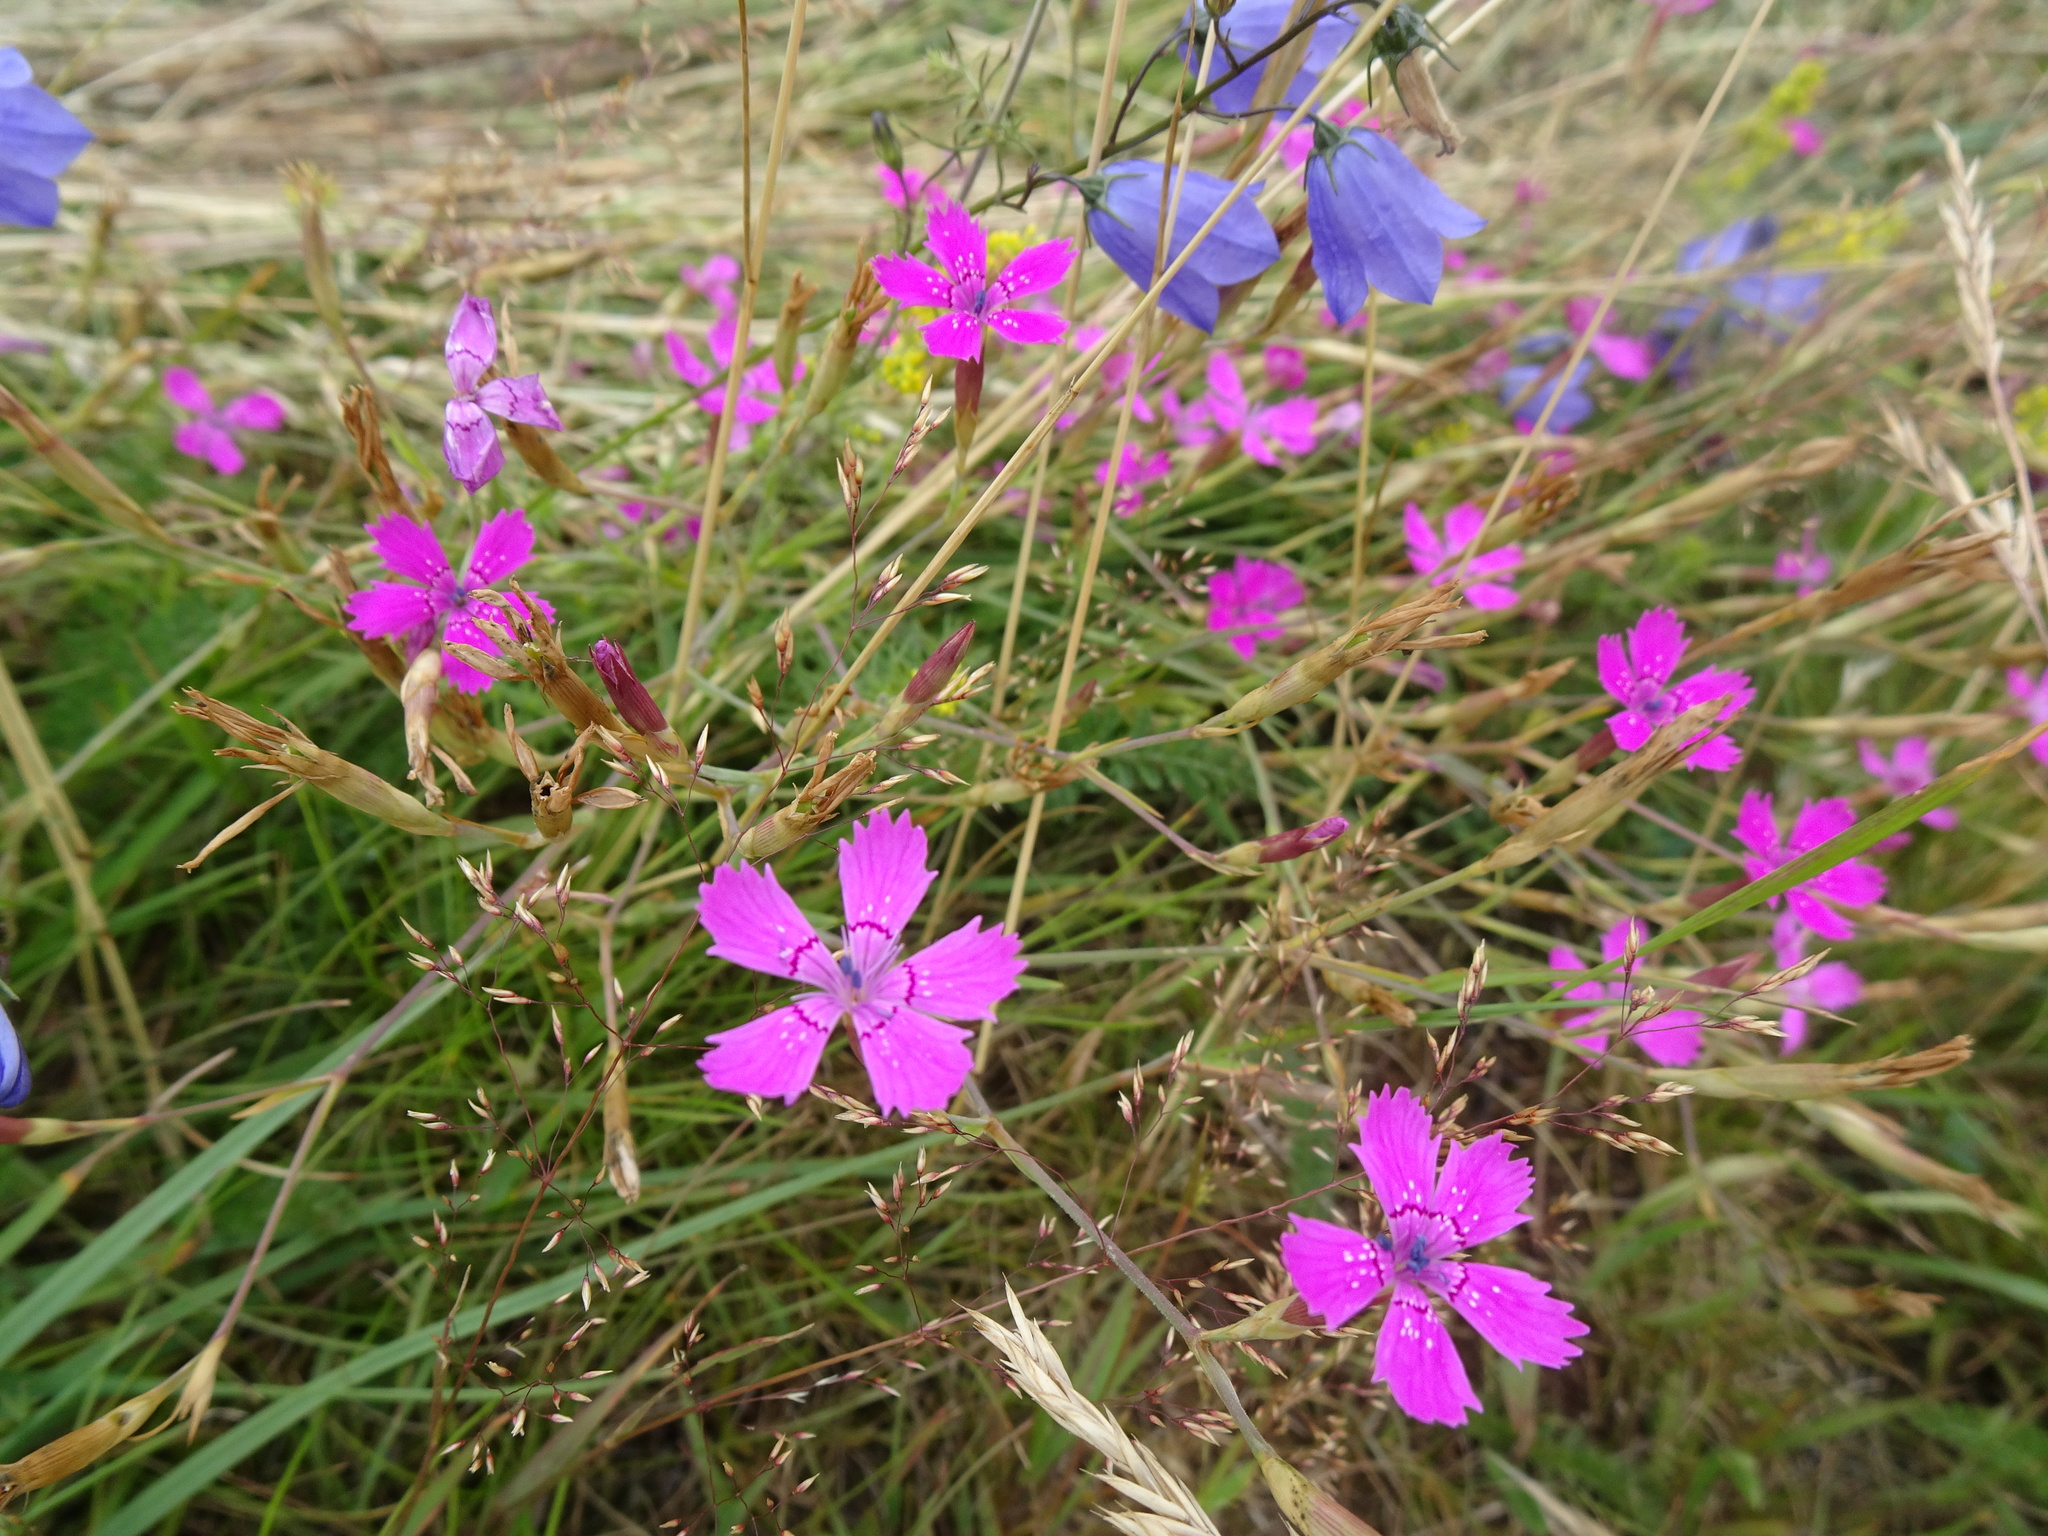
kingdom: Plantae
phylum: Tracheophyta
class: Magnoliopsida
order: Caryophyllales
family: Caryophyllaceae
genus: Dianthus
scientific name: Dianthus deltoides
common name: Maiden pink
